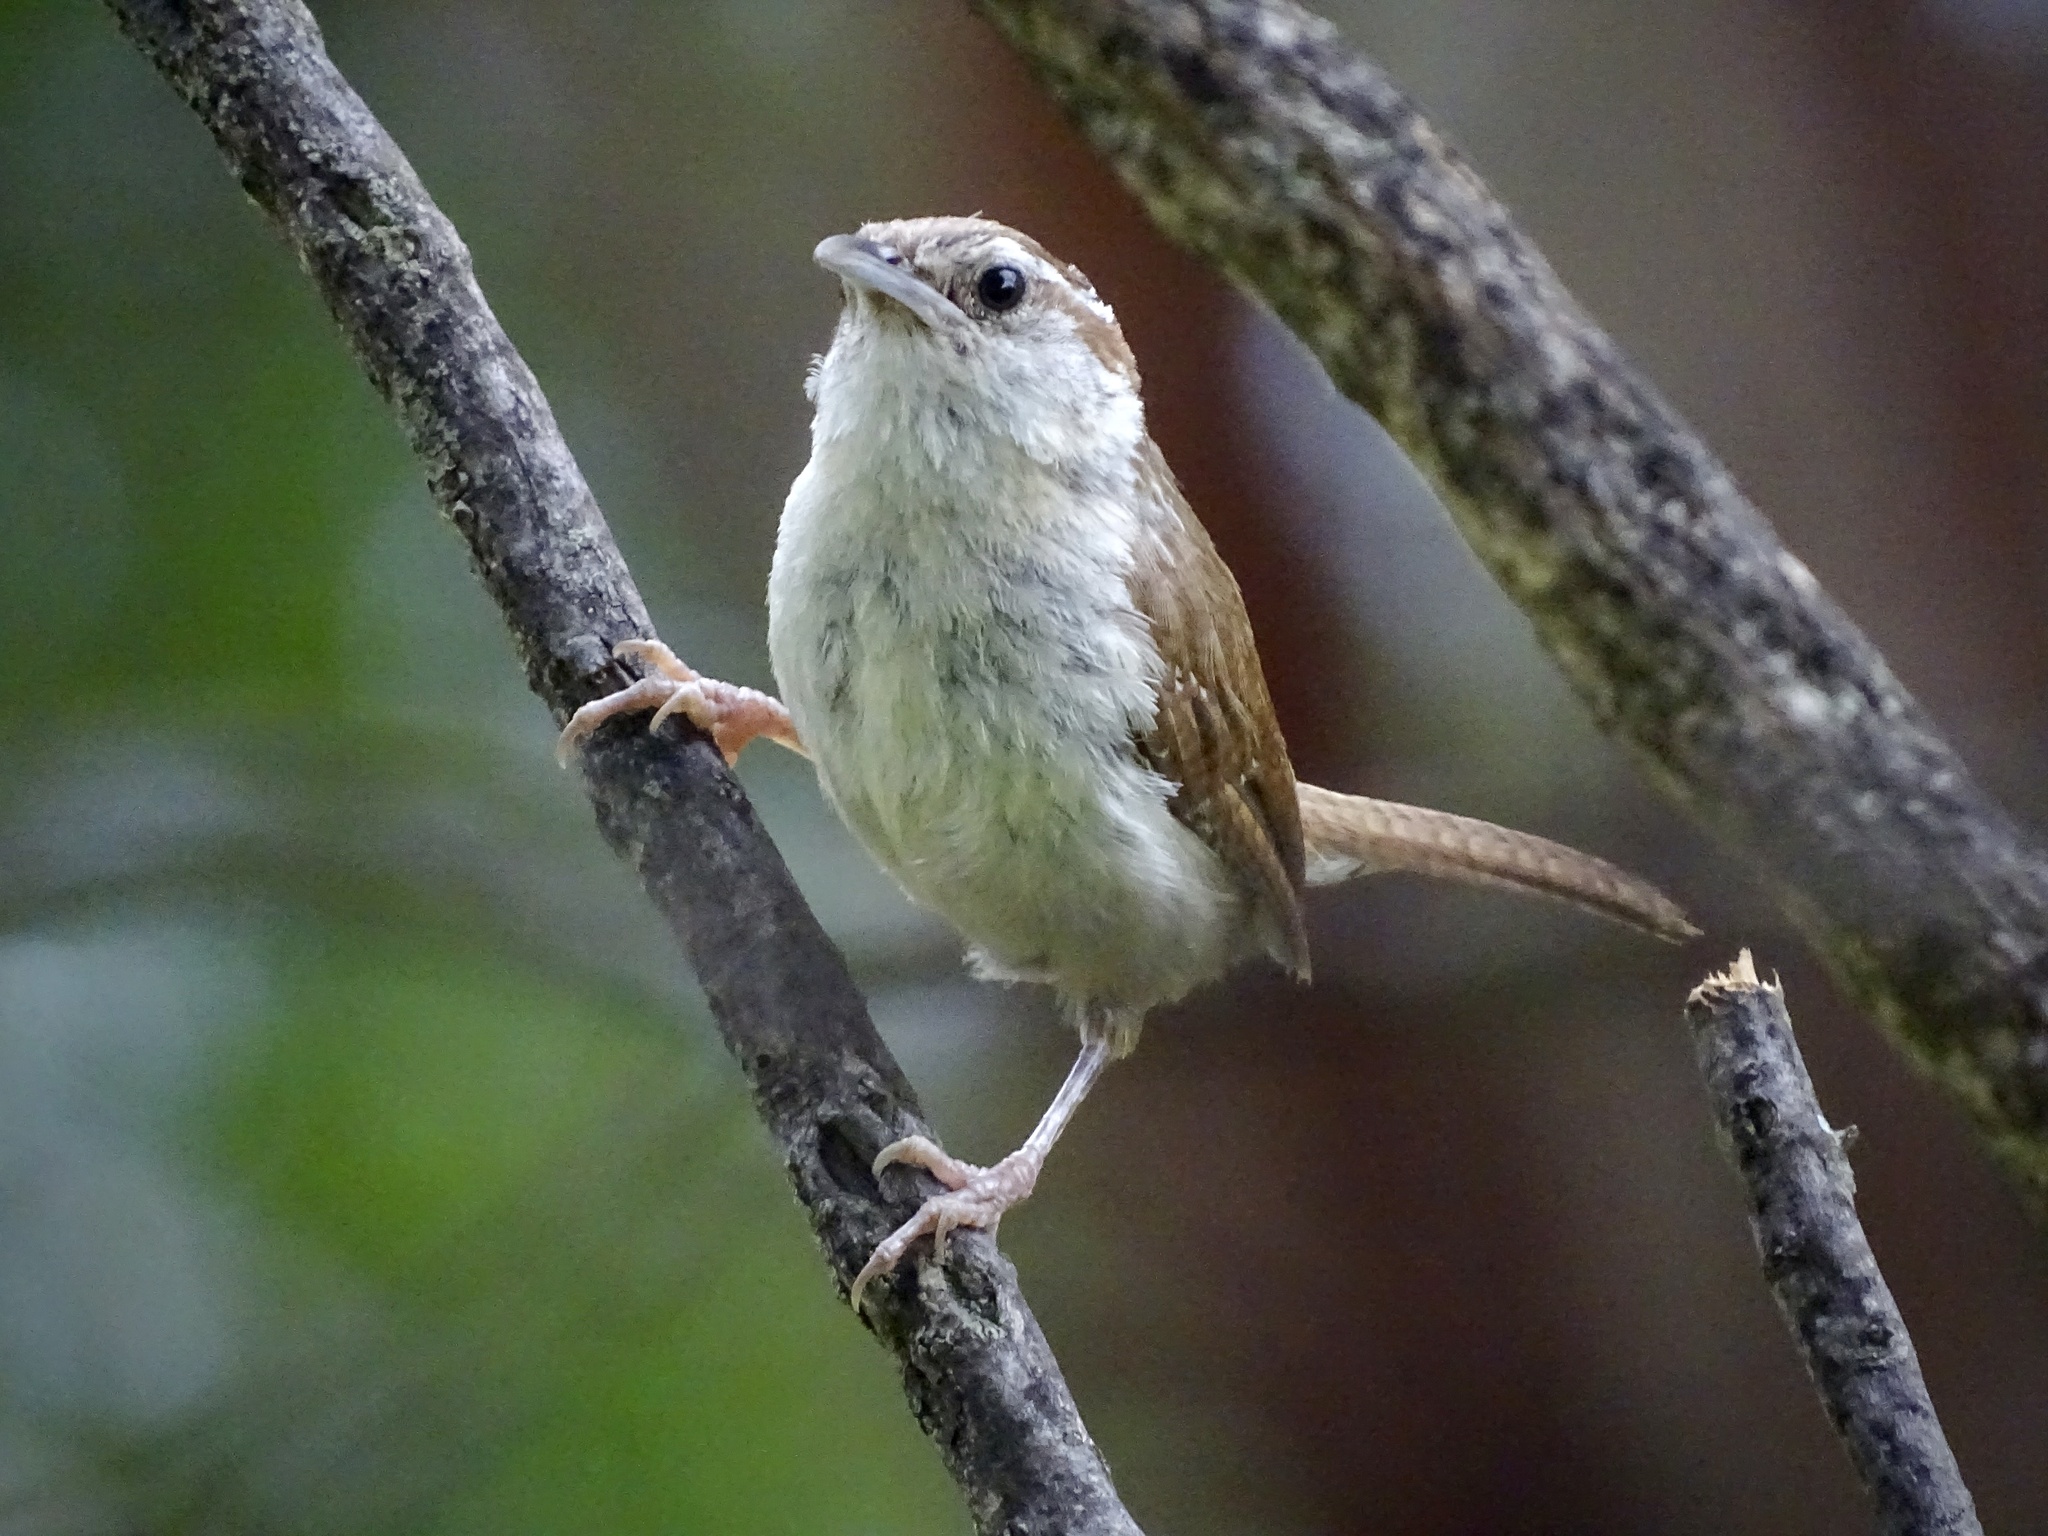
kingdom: Animalia
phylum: Chordata
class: Aves
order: Passeriformes
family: Troglodytidae
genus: Thryothorus
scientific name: Thryothorus ludovicianus
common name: Carolina wren
